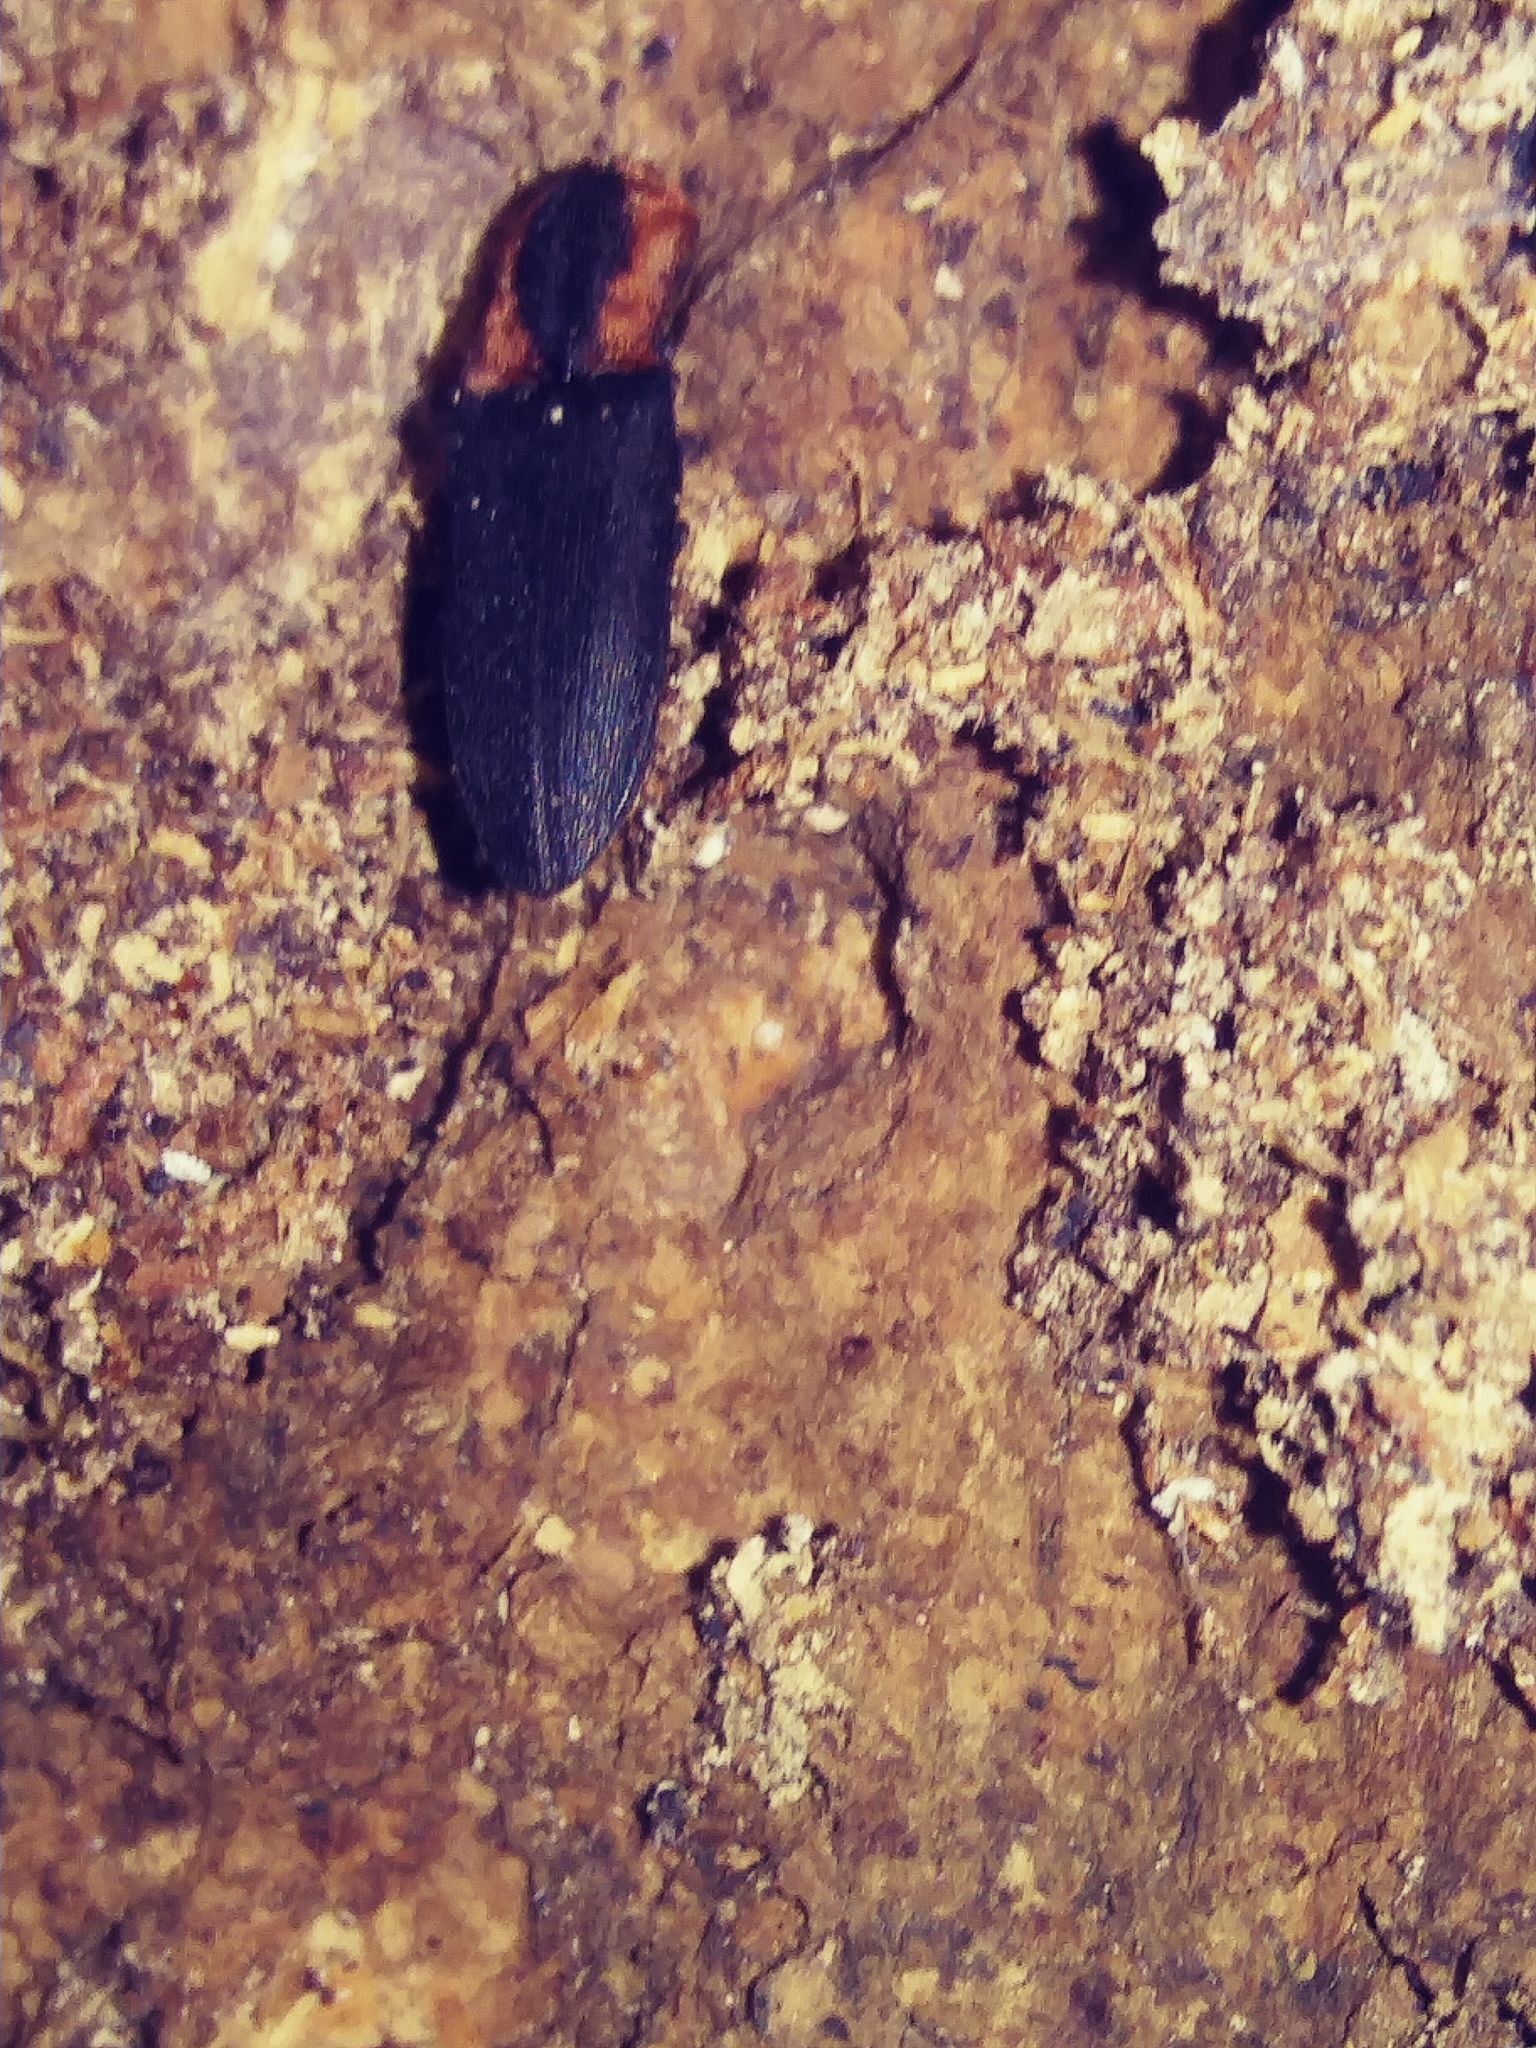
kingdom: Animalia
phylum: Arthropoda
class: Insecta
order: Coleoptera
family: Elateridae
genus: Lacon
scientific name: Lacon discoideus
